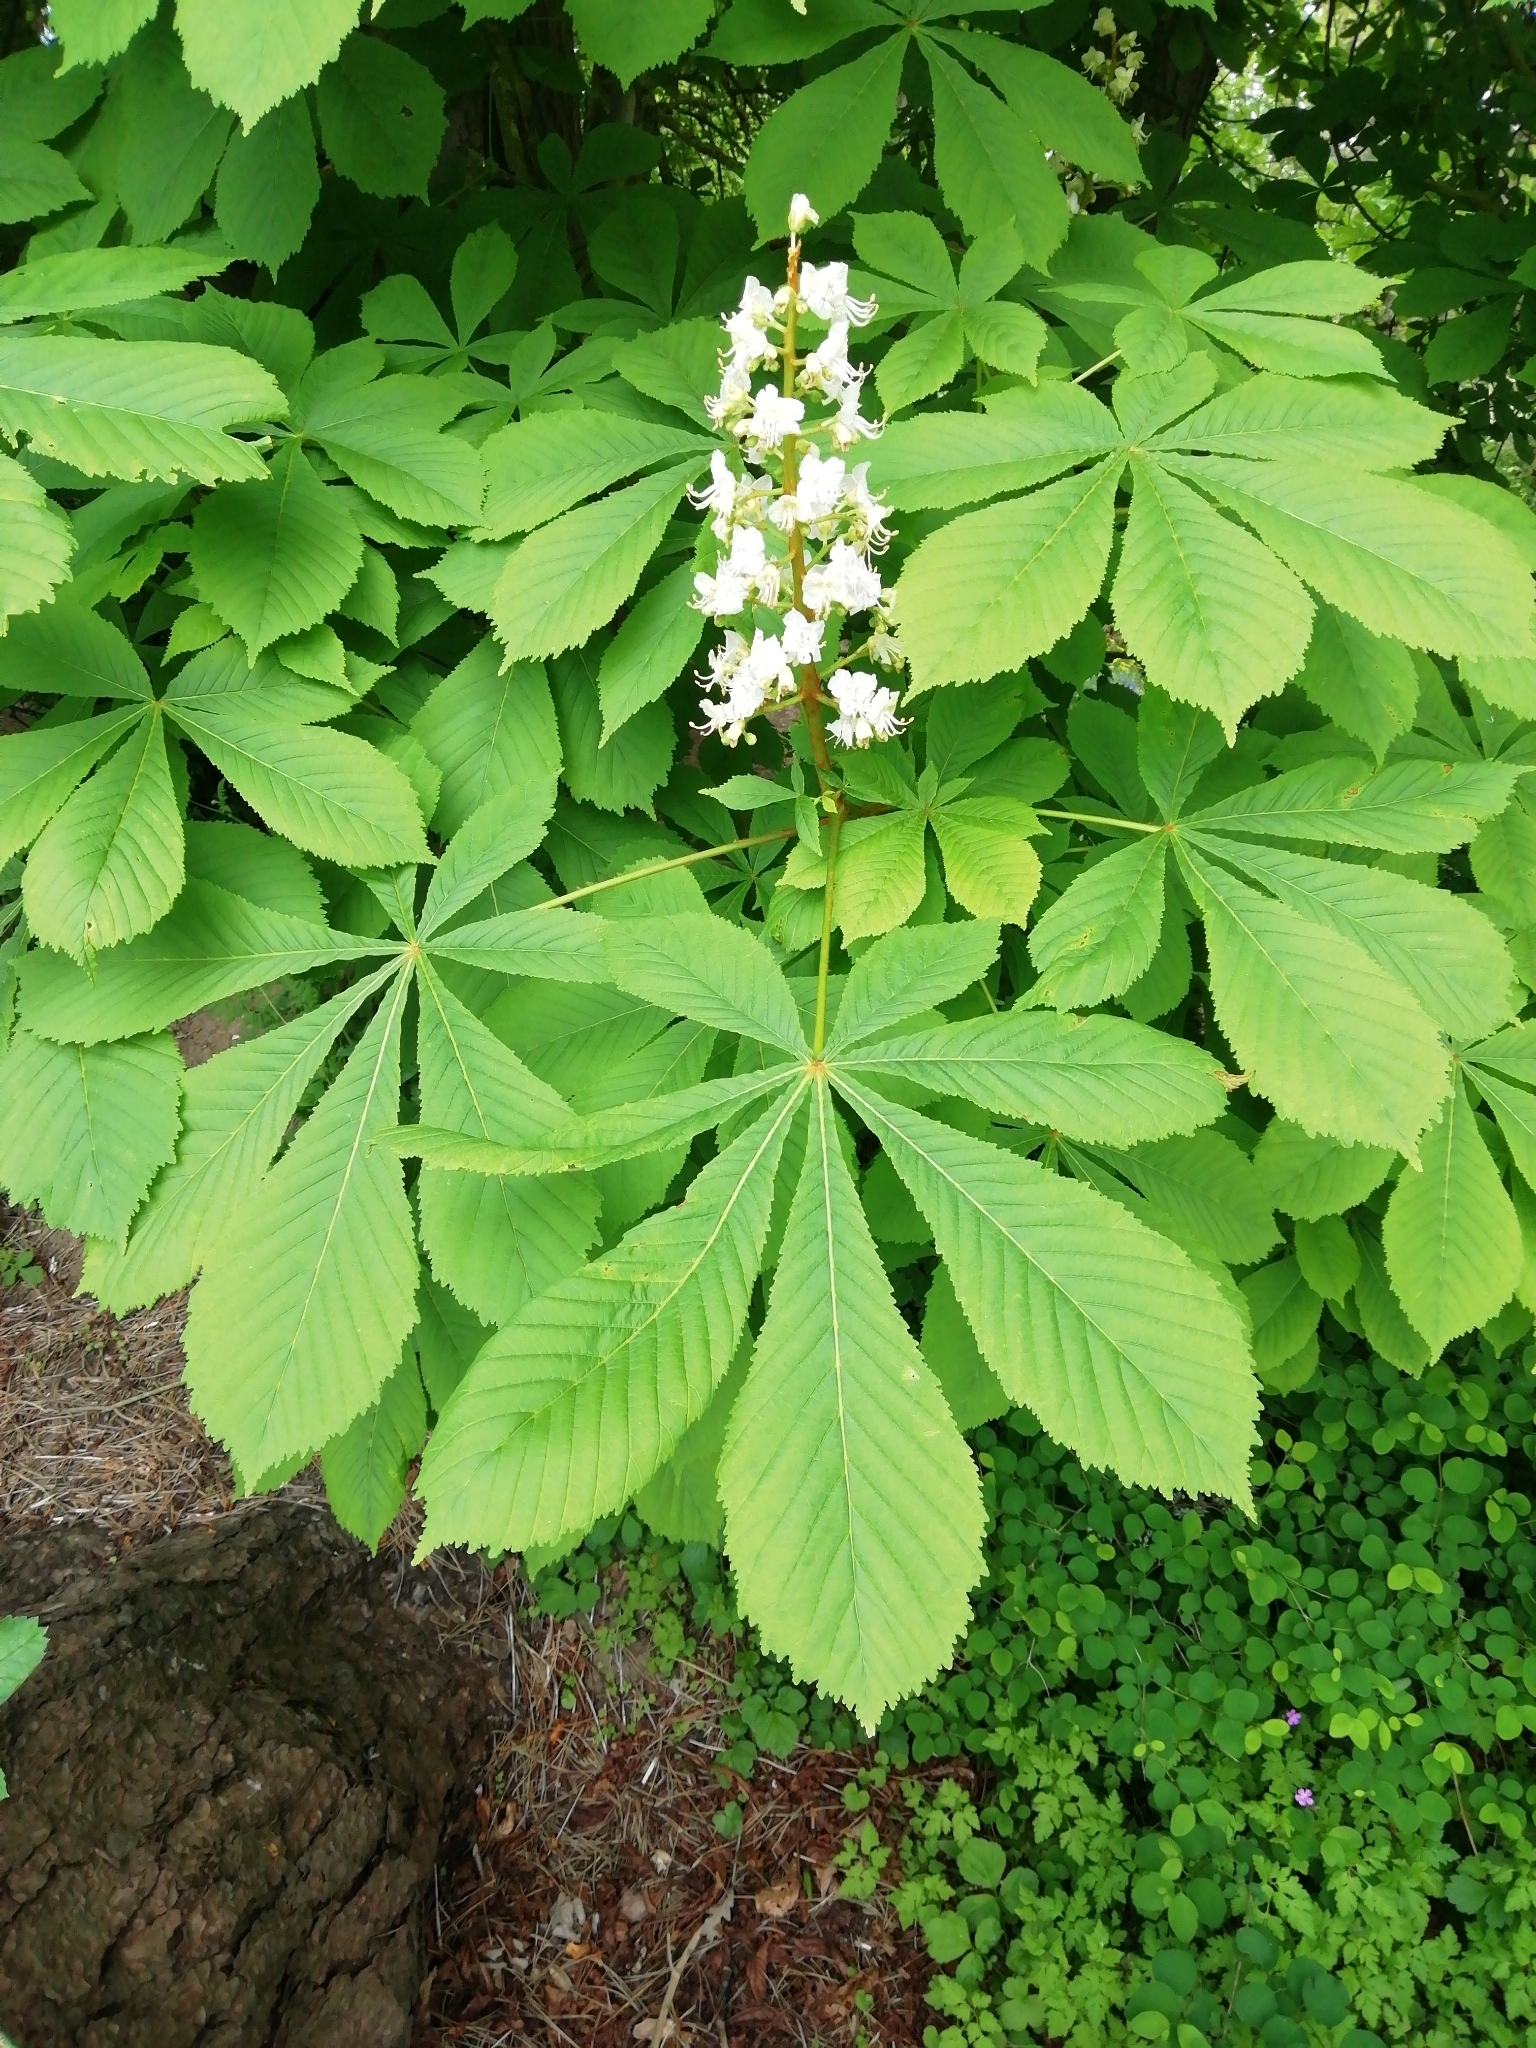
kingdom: Plantae
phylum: Tracheophyta
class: Magnoliopsida
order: Sapindales
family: Sapindaceae
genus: Aesculus
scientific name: Aesculus hippocastanum
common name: Horse-chestnut
